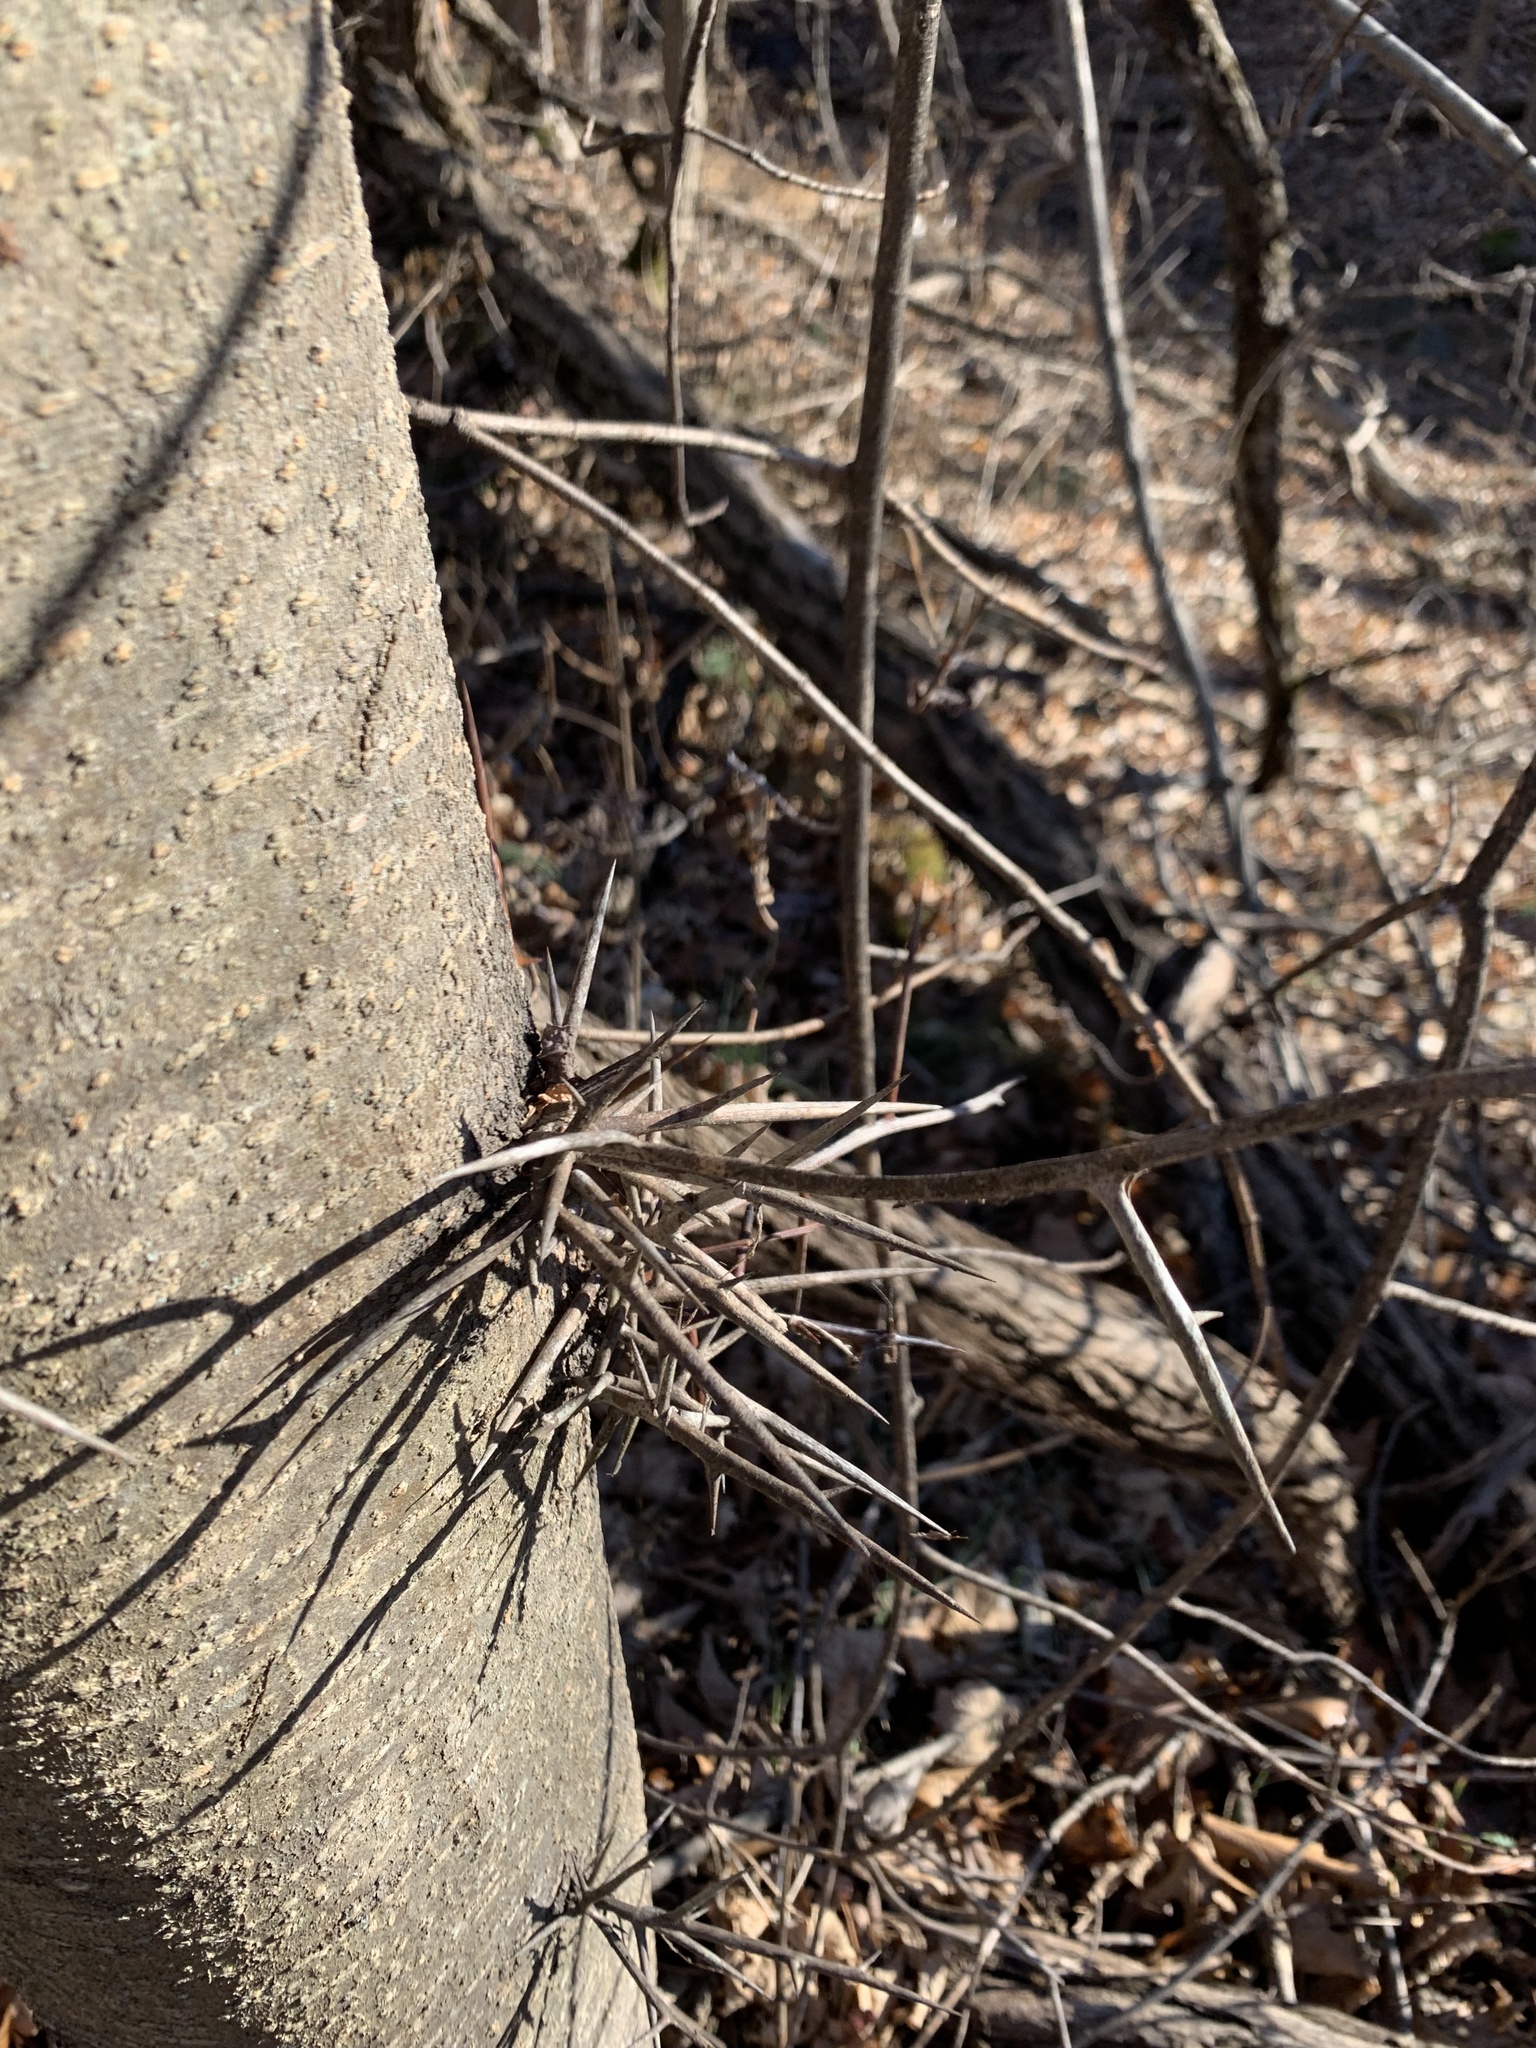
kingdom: Plantae
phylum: Tracheophyta
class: Magnoliopsida
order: Fabales
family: Fabaceae
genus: Gleditsia
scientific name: Gleditsia triacanthos
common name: Common honeylocust
